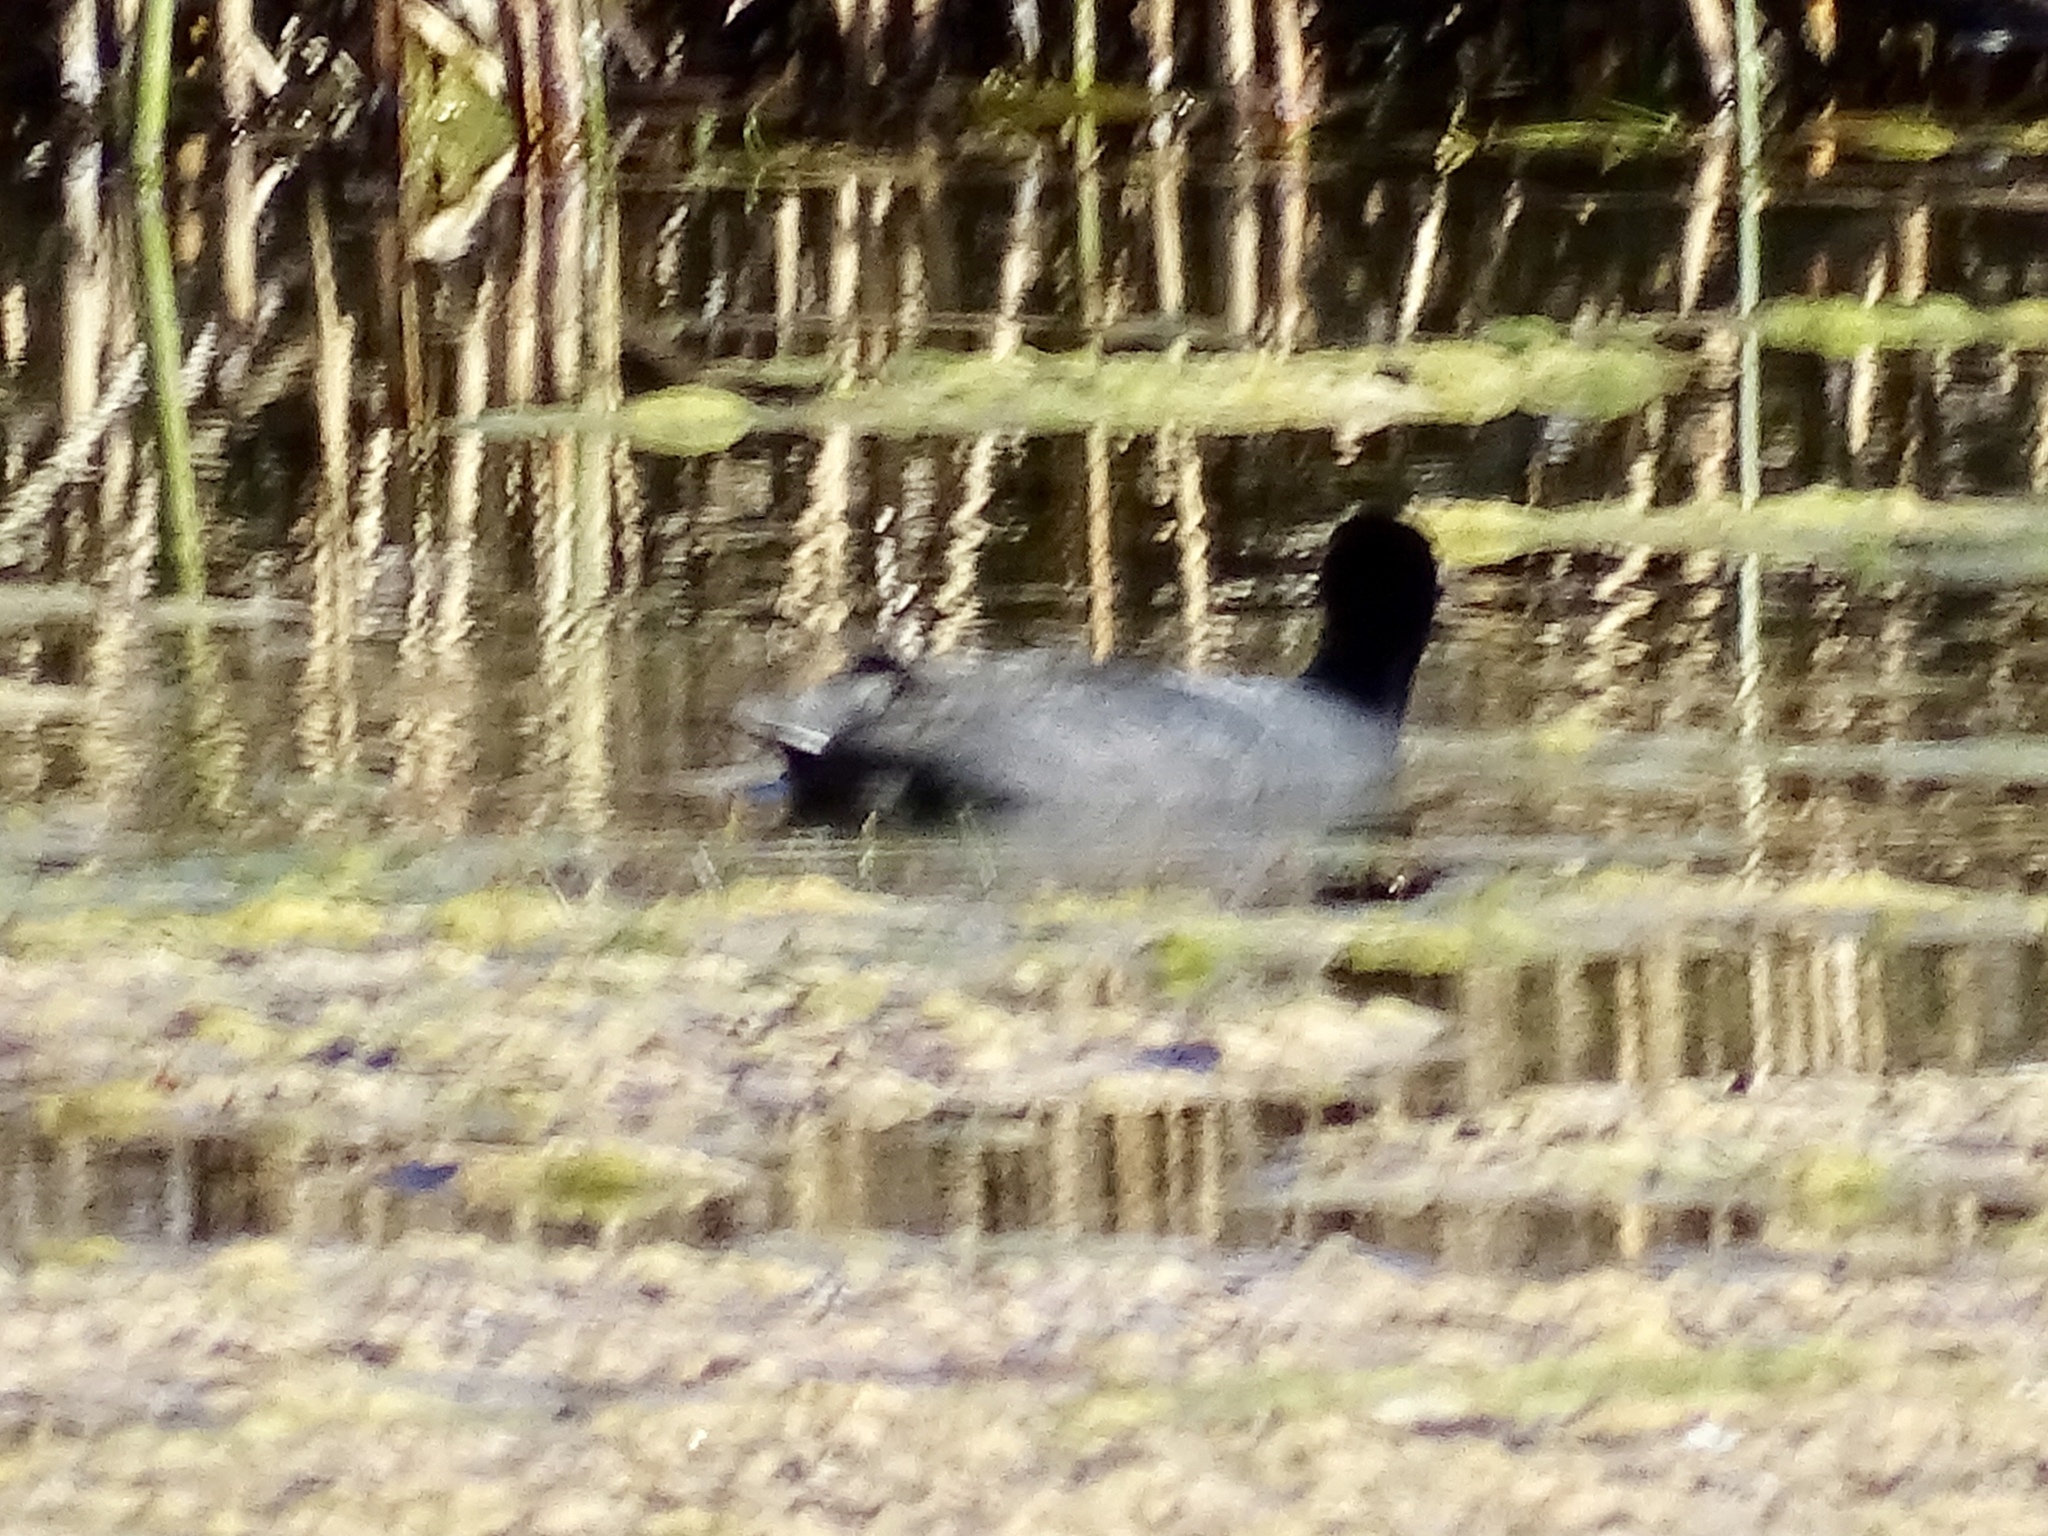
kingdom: Animalia
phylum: Chordata
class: Aves
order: Gruiformes
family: Rallidae
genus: Fulica
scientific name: Fulica americana
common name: American coot
